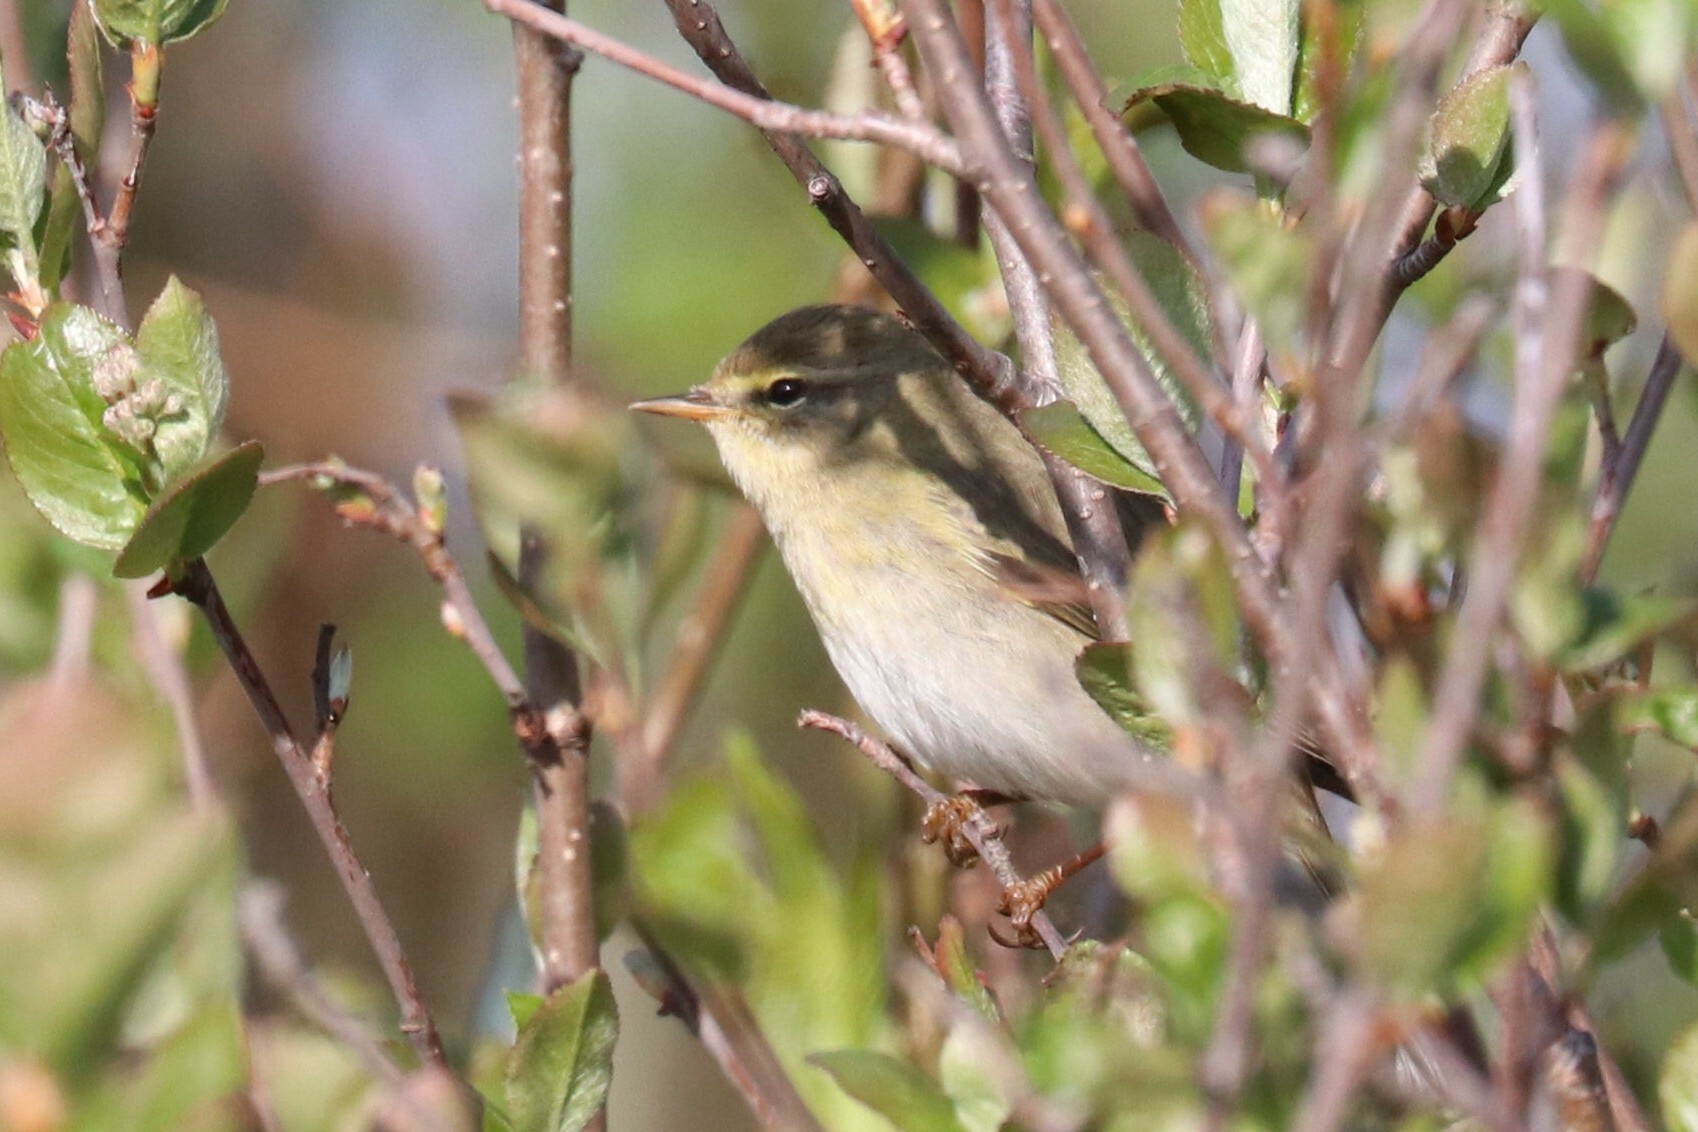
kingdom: Animalia
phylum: Chordata
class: Aves
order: Passeriformes
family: Phylloscopidae
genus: Phylloscopus
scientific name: Phylloscopus trochilus
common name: Willow warbler
